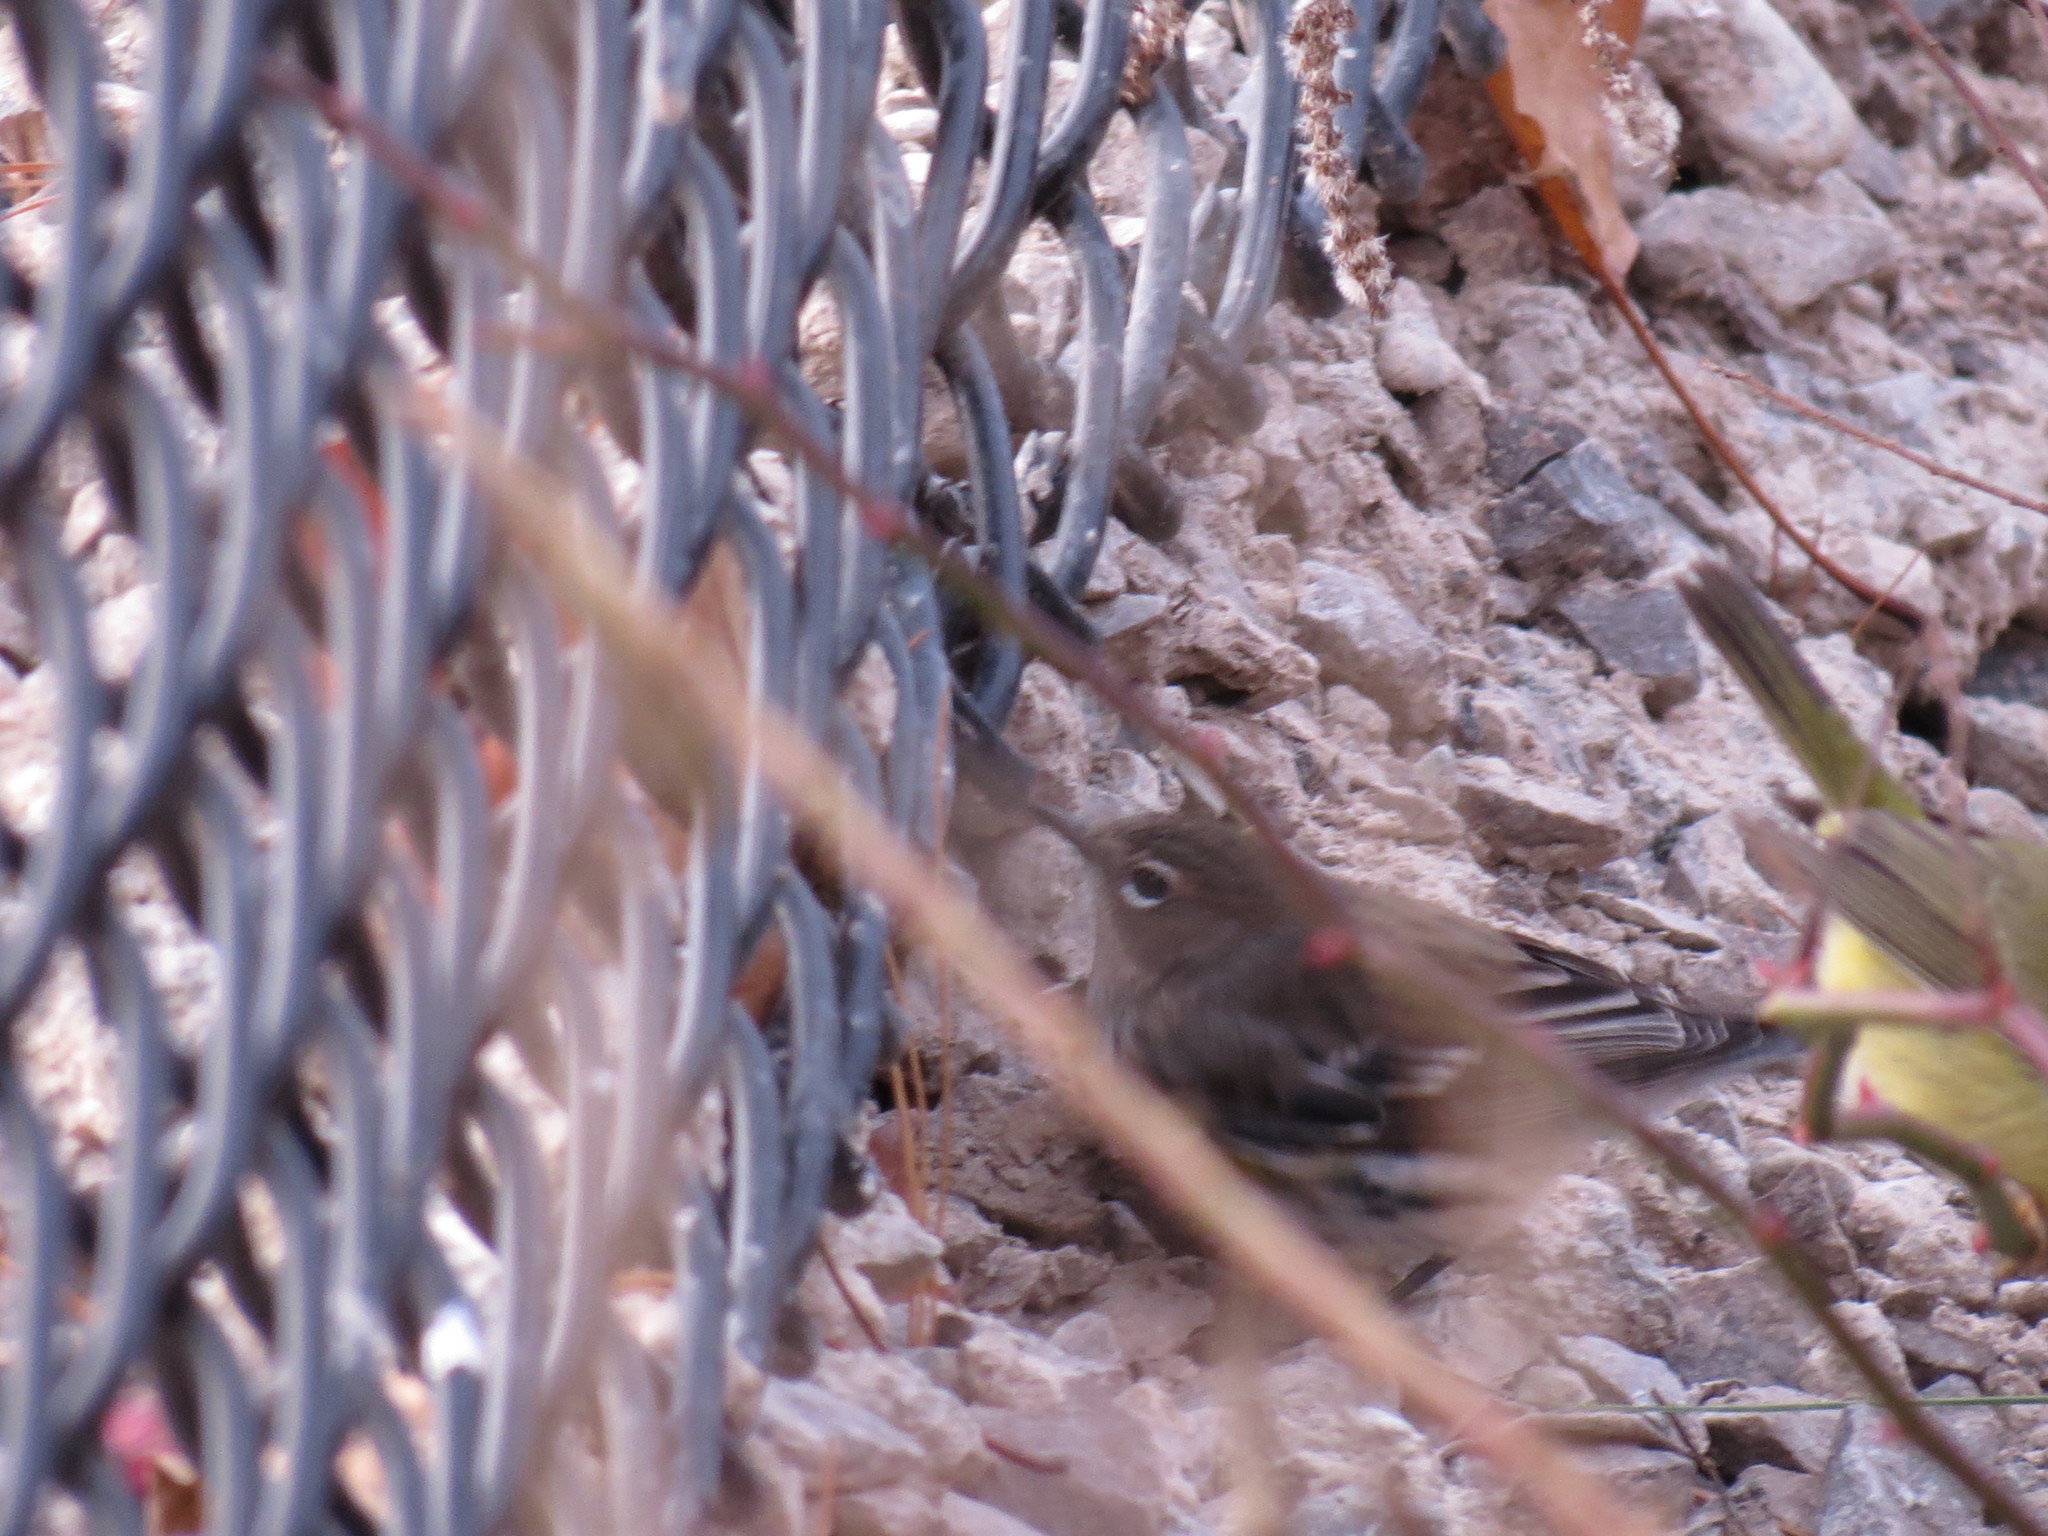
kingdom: Animalia
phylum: Chordata
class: Aves
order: Passeriformes
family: Parulidae
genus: Setophaga
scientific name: Setophaga coronata
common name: Myrtle warbler
